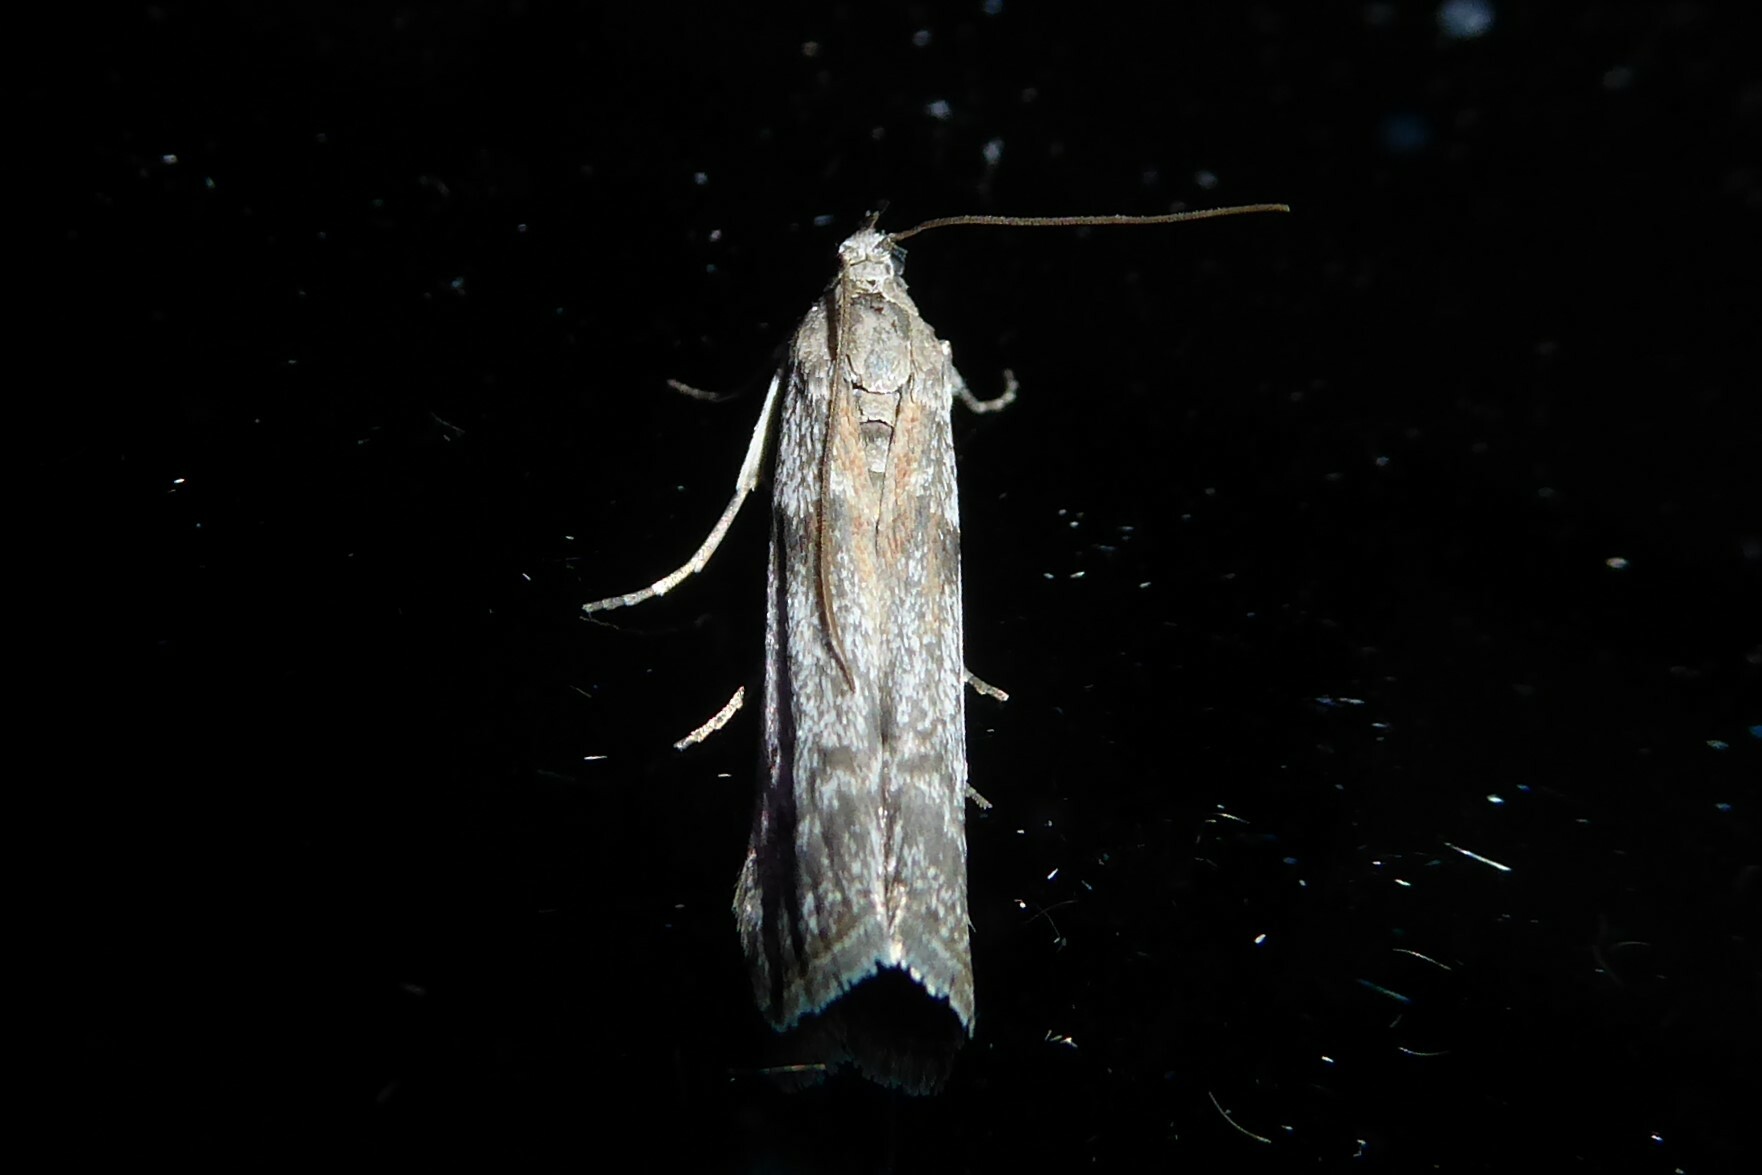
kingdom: Animalia
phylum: Arthropoda
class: Insecta
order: Lepidoptera
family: Pyralidae
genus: Patagoniodes
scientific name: Patagoniodes farinaria
